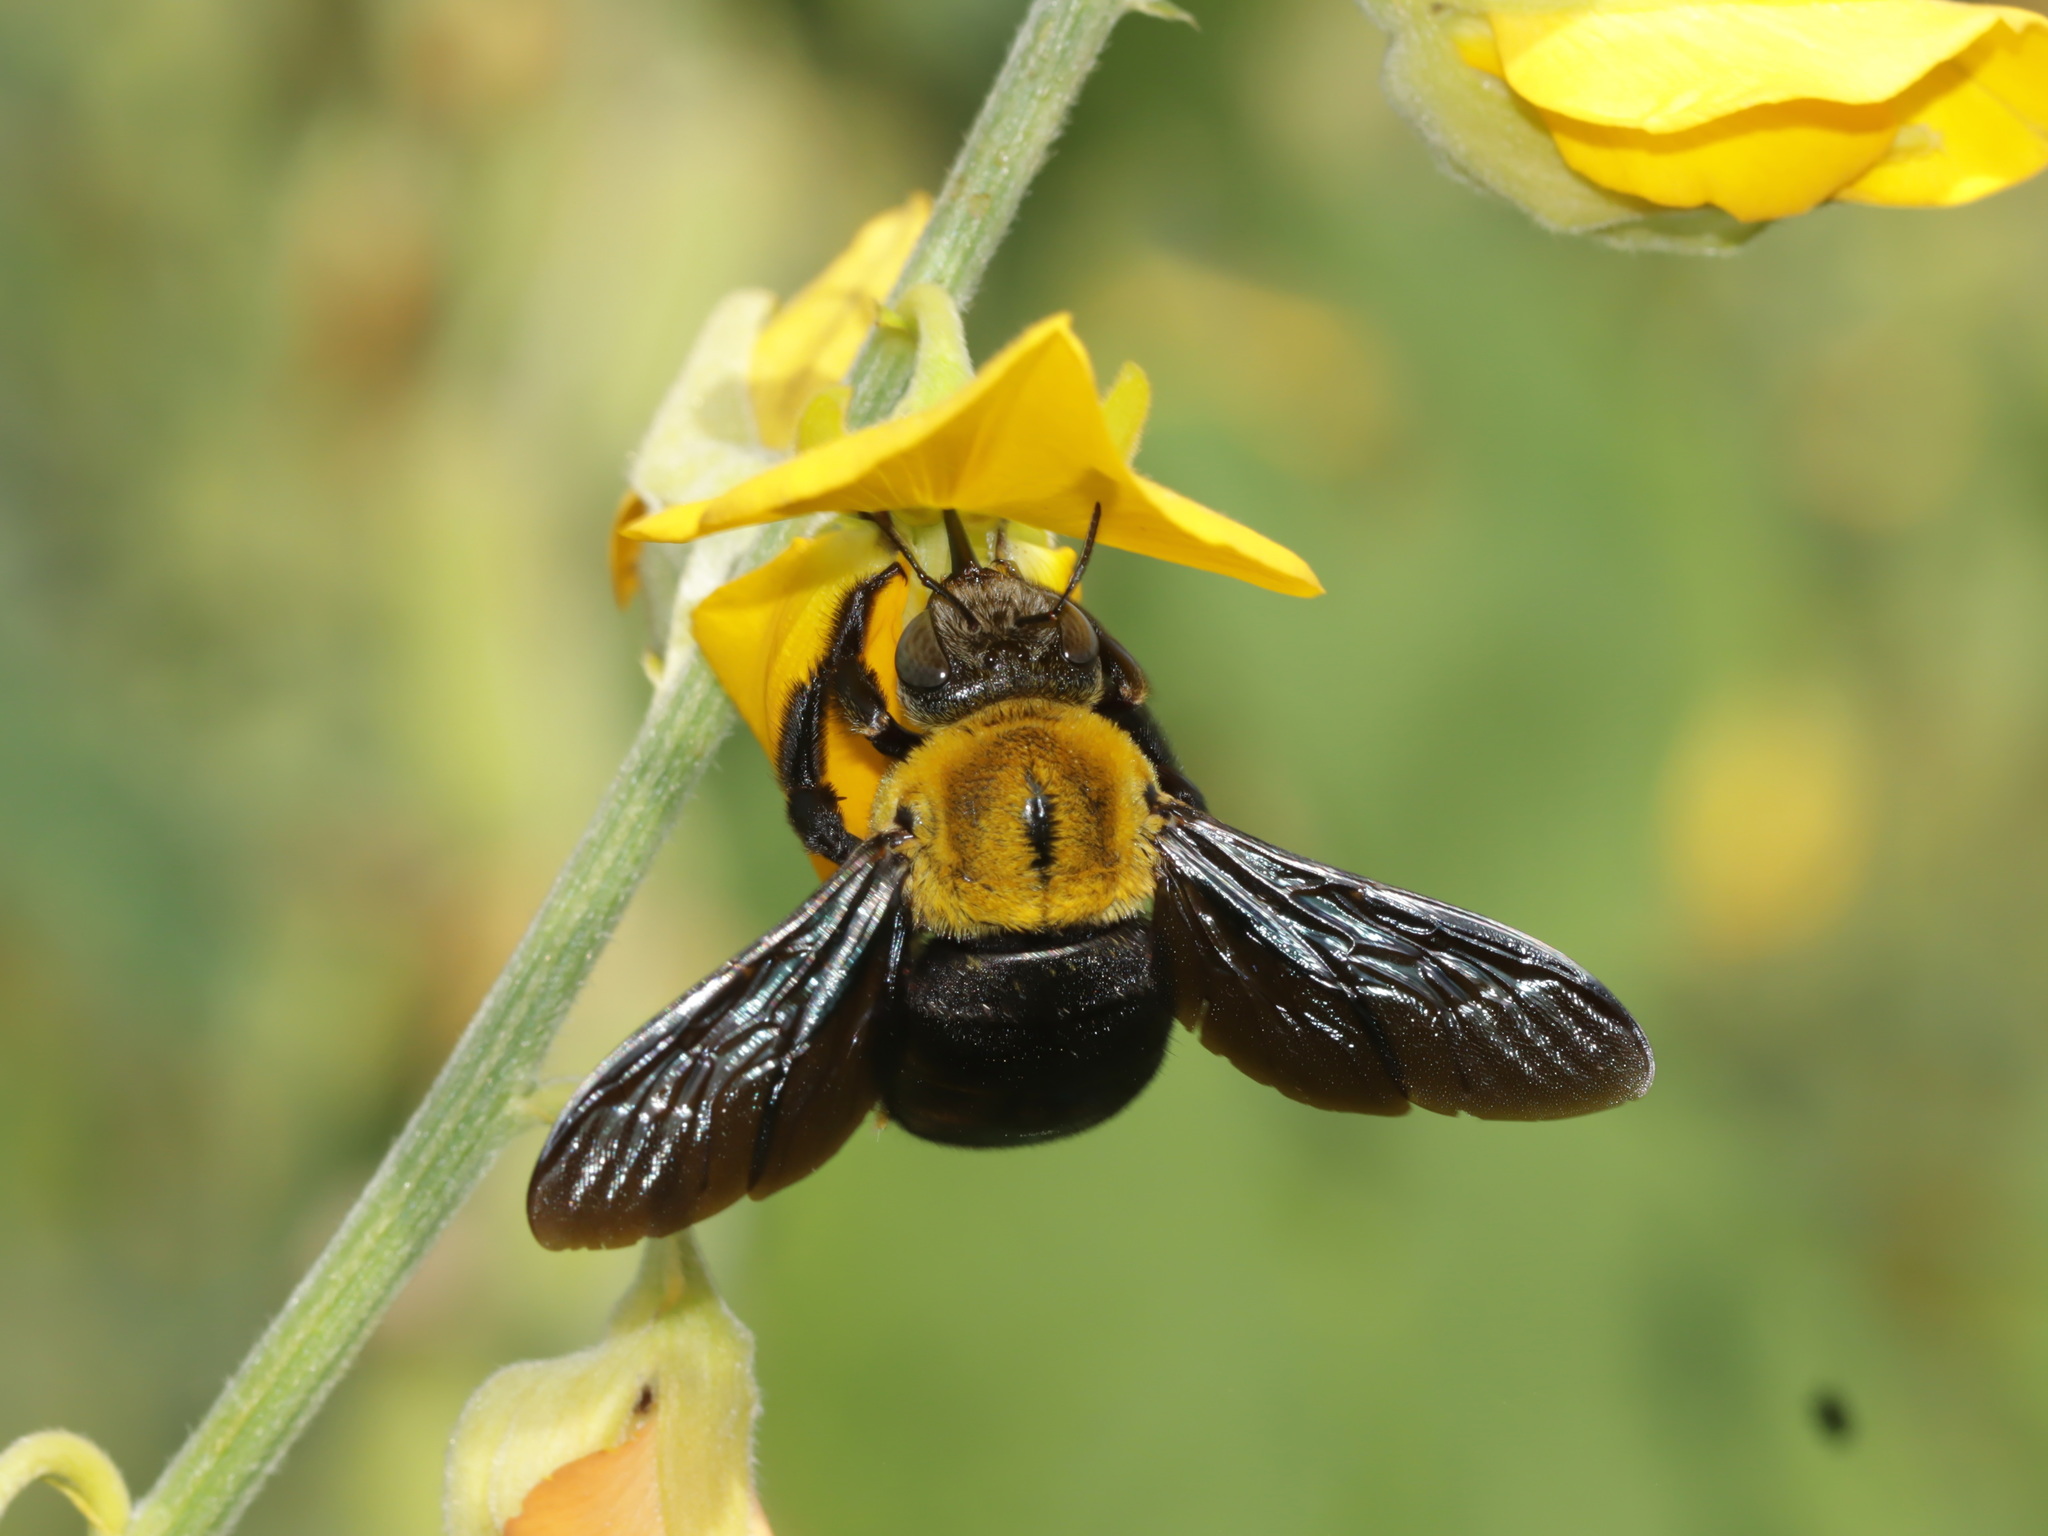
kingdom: Animalia
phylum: Arthropoda
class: Insecta
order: Hymenoptera
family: Apidae
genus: Xylocopa
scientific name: Xylocopa minor
